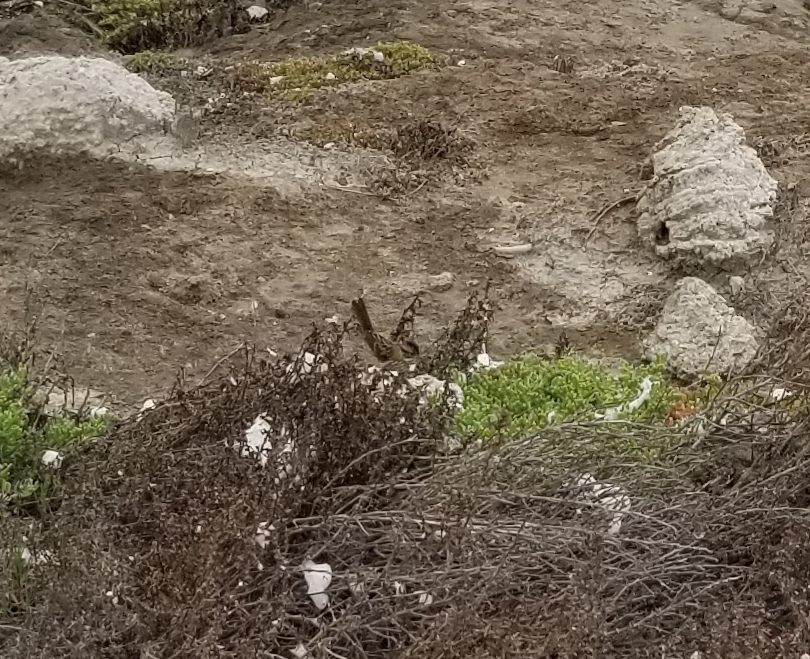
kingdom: Animalia
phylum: Chordata
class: Aves
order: Passeriformes
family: Passerellidae
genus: Melospiza
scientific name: Melospiza melodia
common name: Song sparrow
